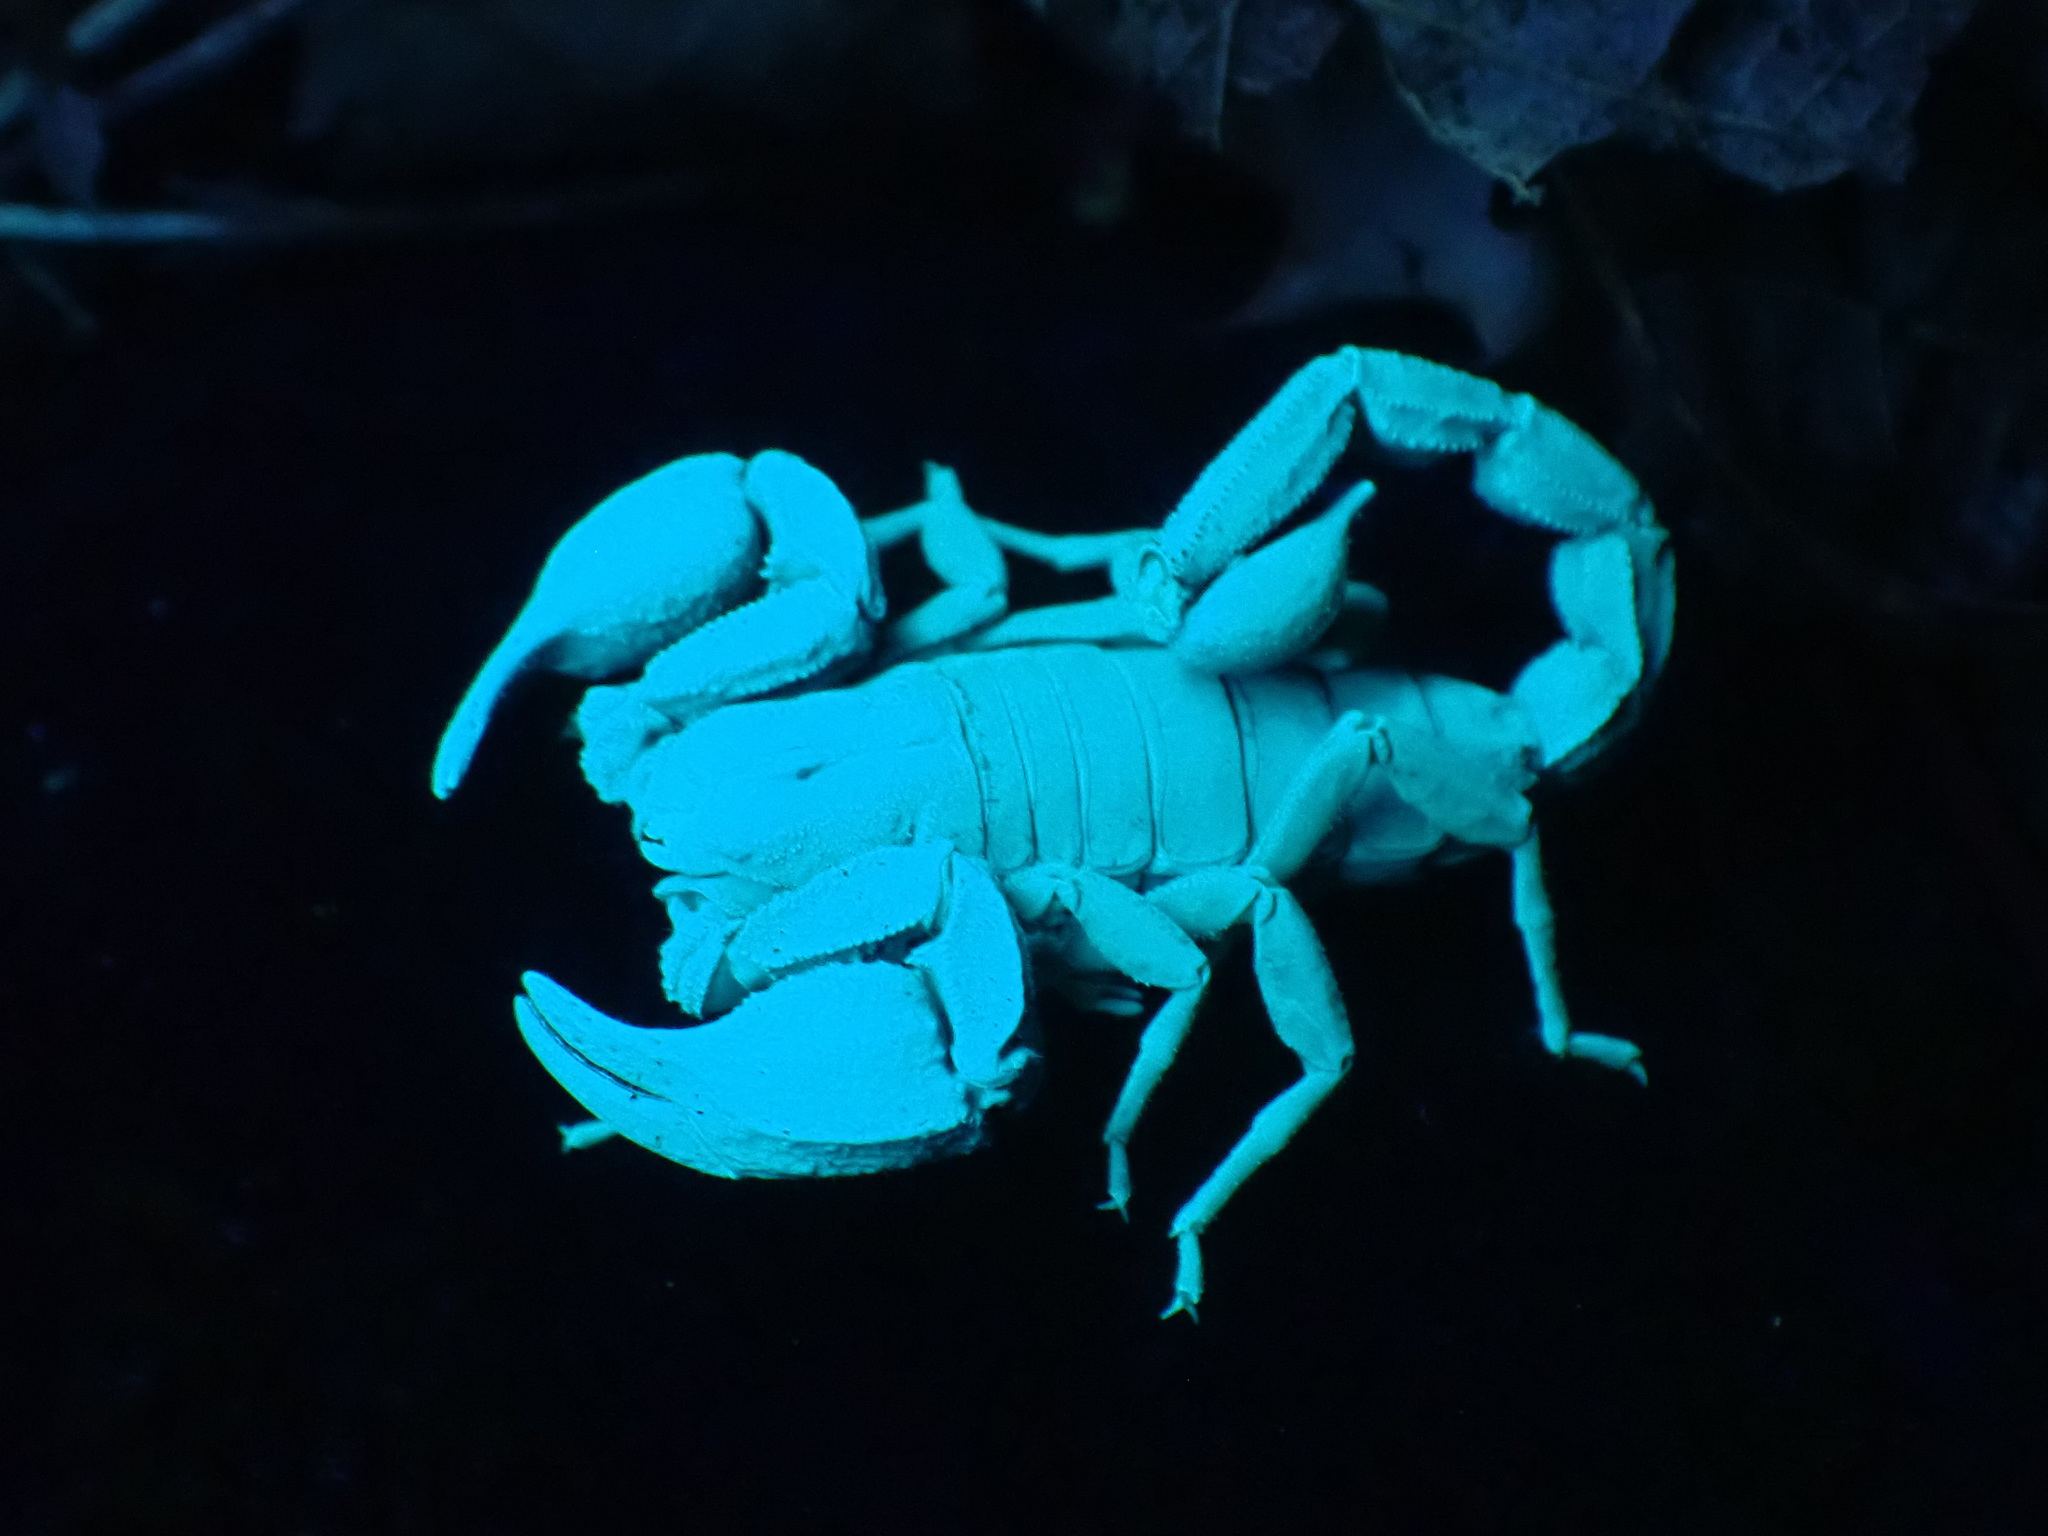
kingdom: Animalia
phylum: Arthropoda
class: Arachnida
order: Scorpiones
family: Chactidae
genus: Uroctonus
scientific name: Uroctonus mordax
